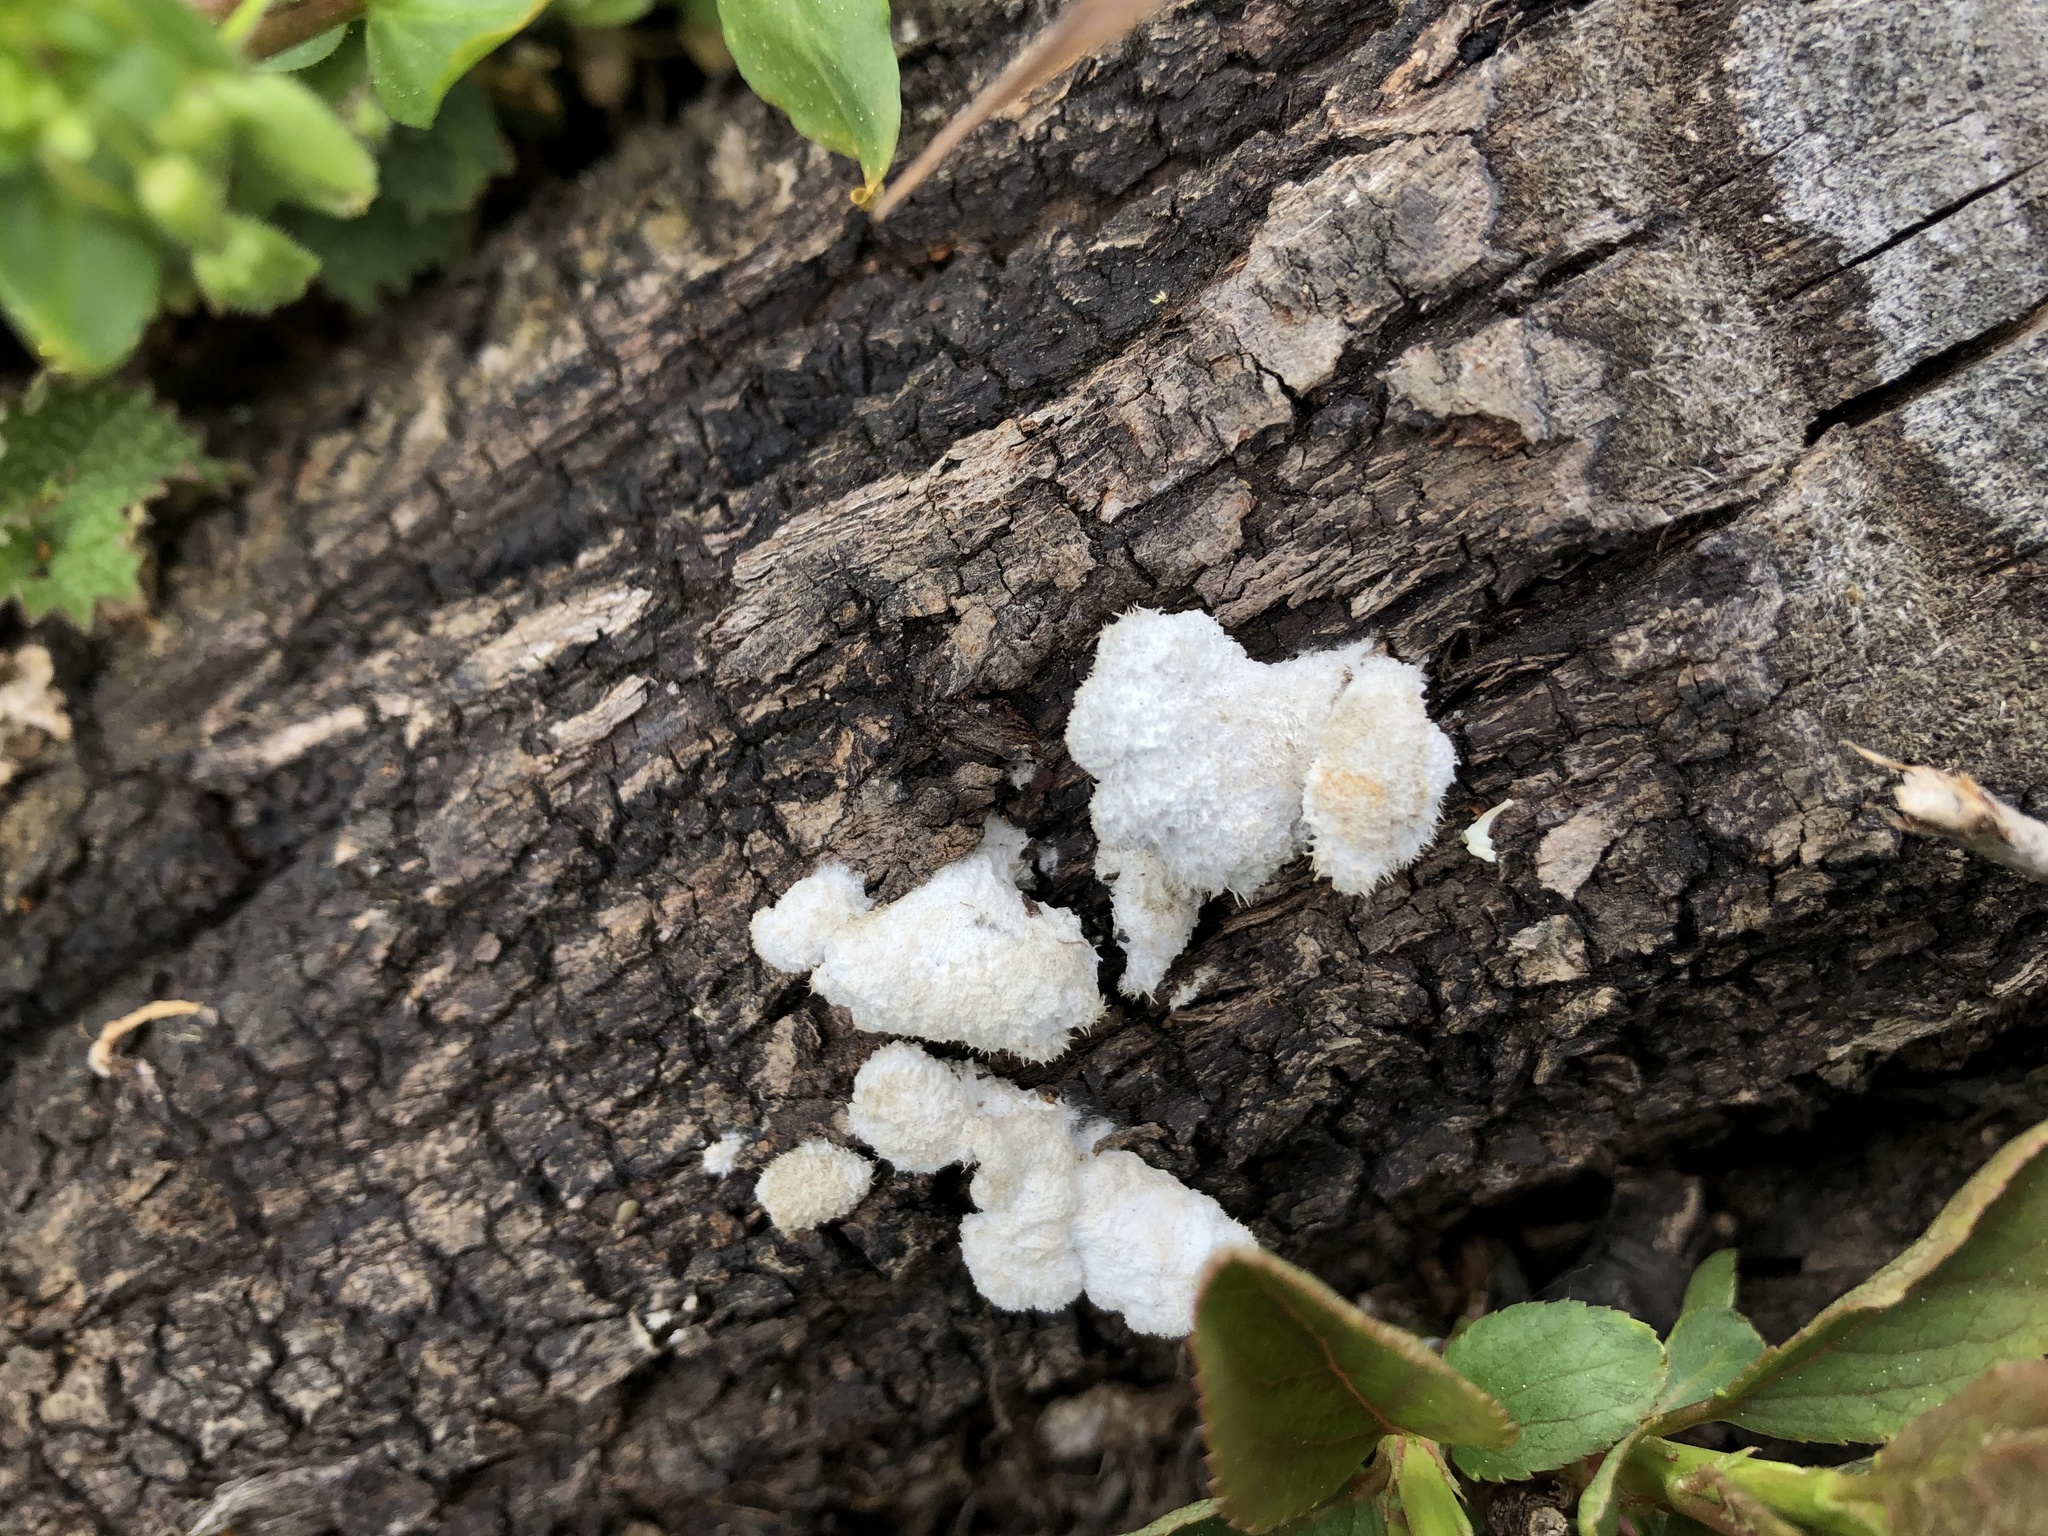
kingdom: Fungi
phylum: Basidiomycota
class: Agaricomycetes
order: Agaricales
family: Schizophyllaceae
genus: Schizophyllum
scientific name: Schizophyllum commune
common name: Common porecrust
